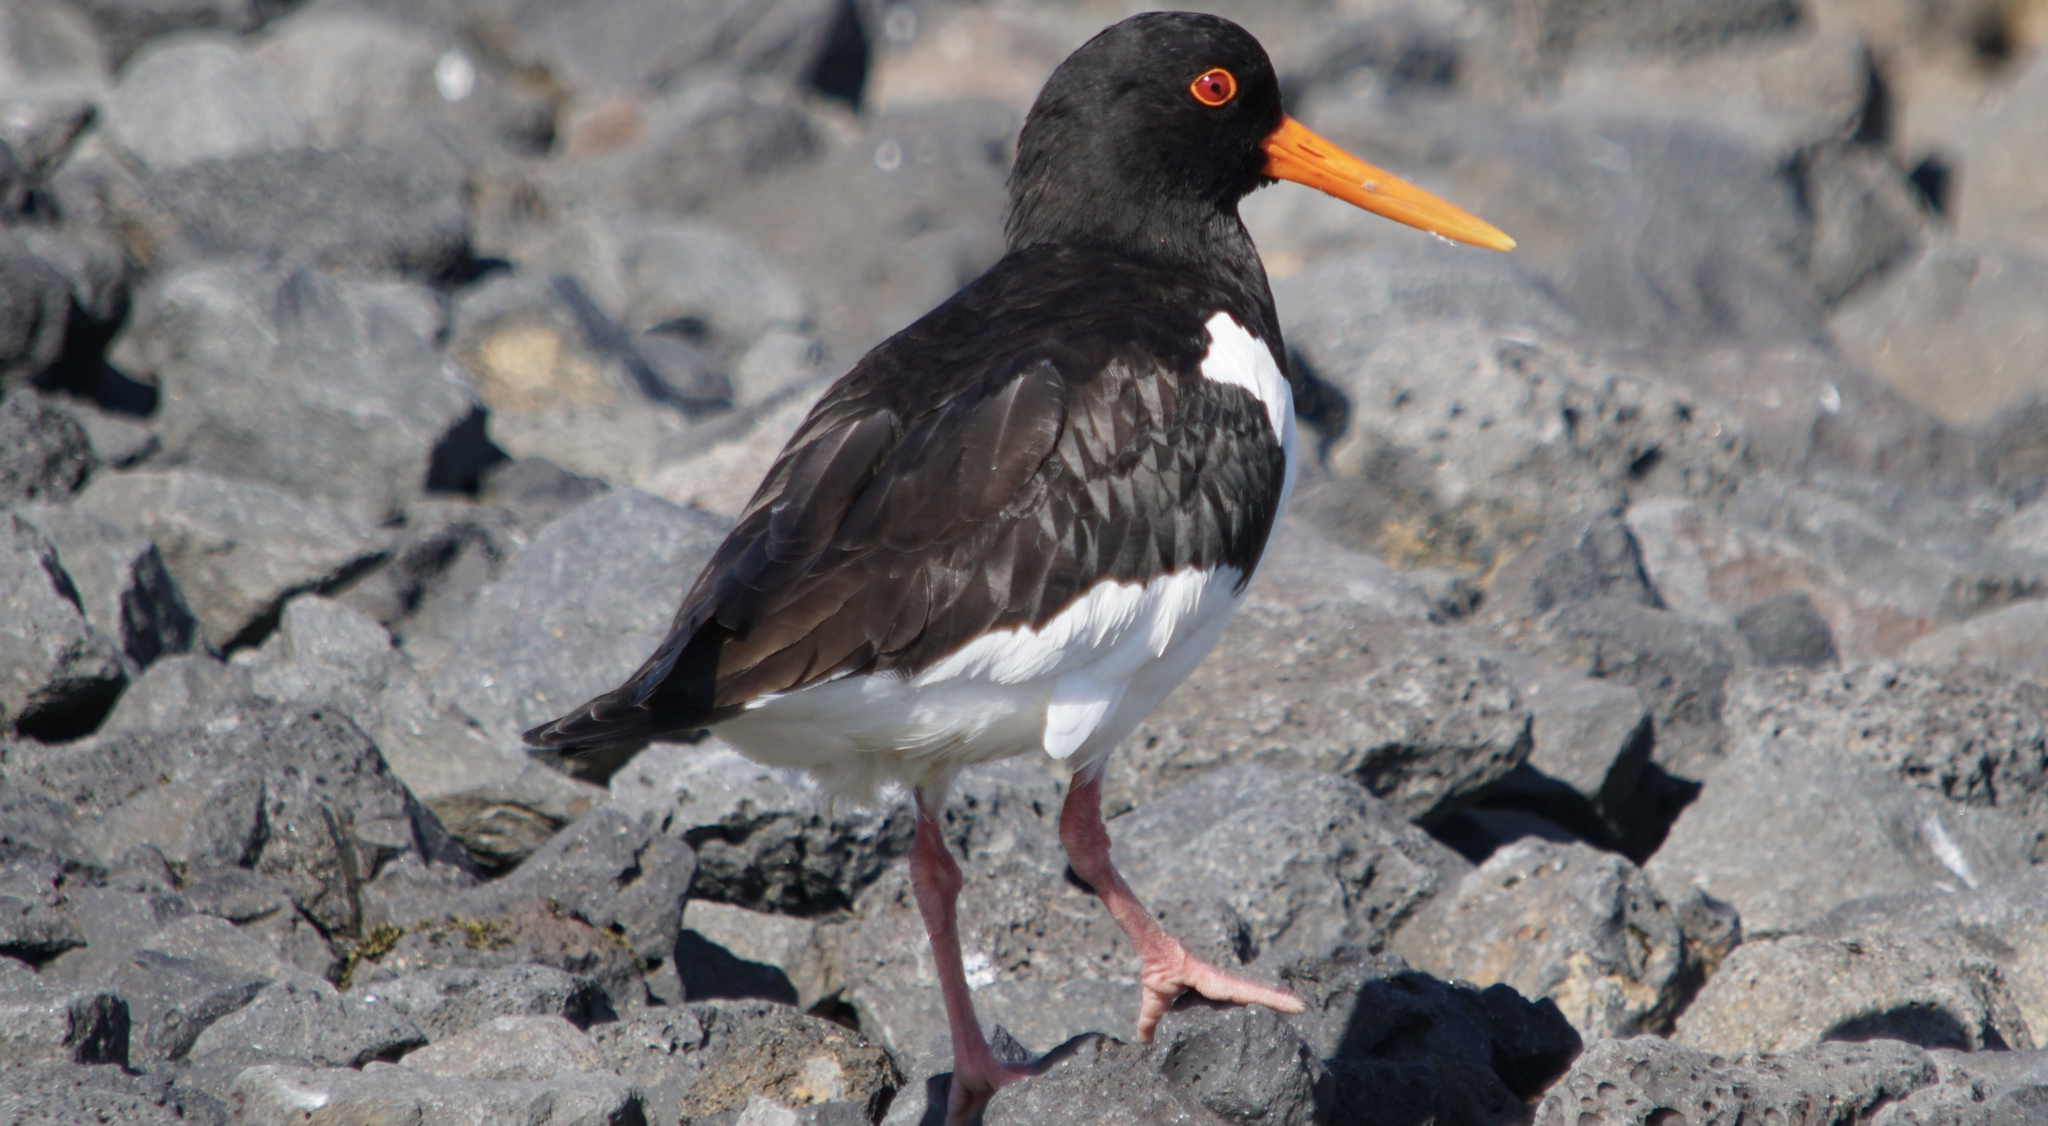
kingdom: Animalia
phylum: Chordata
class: Aves
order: Charadriiformes
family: Haematopodidae
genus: Haematopus
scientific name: Haematopus ostralegus
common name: Eurasian oystercatcher
